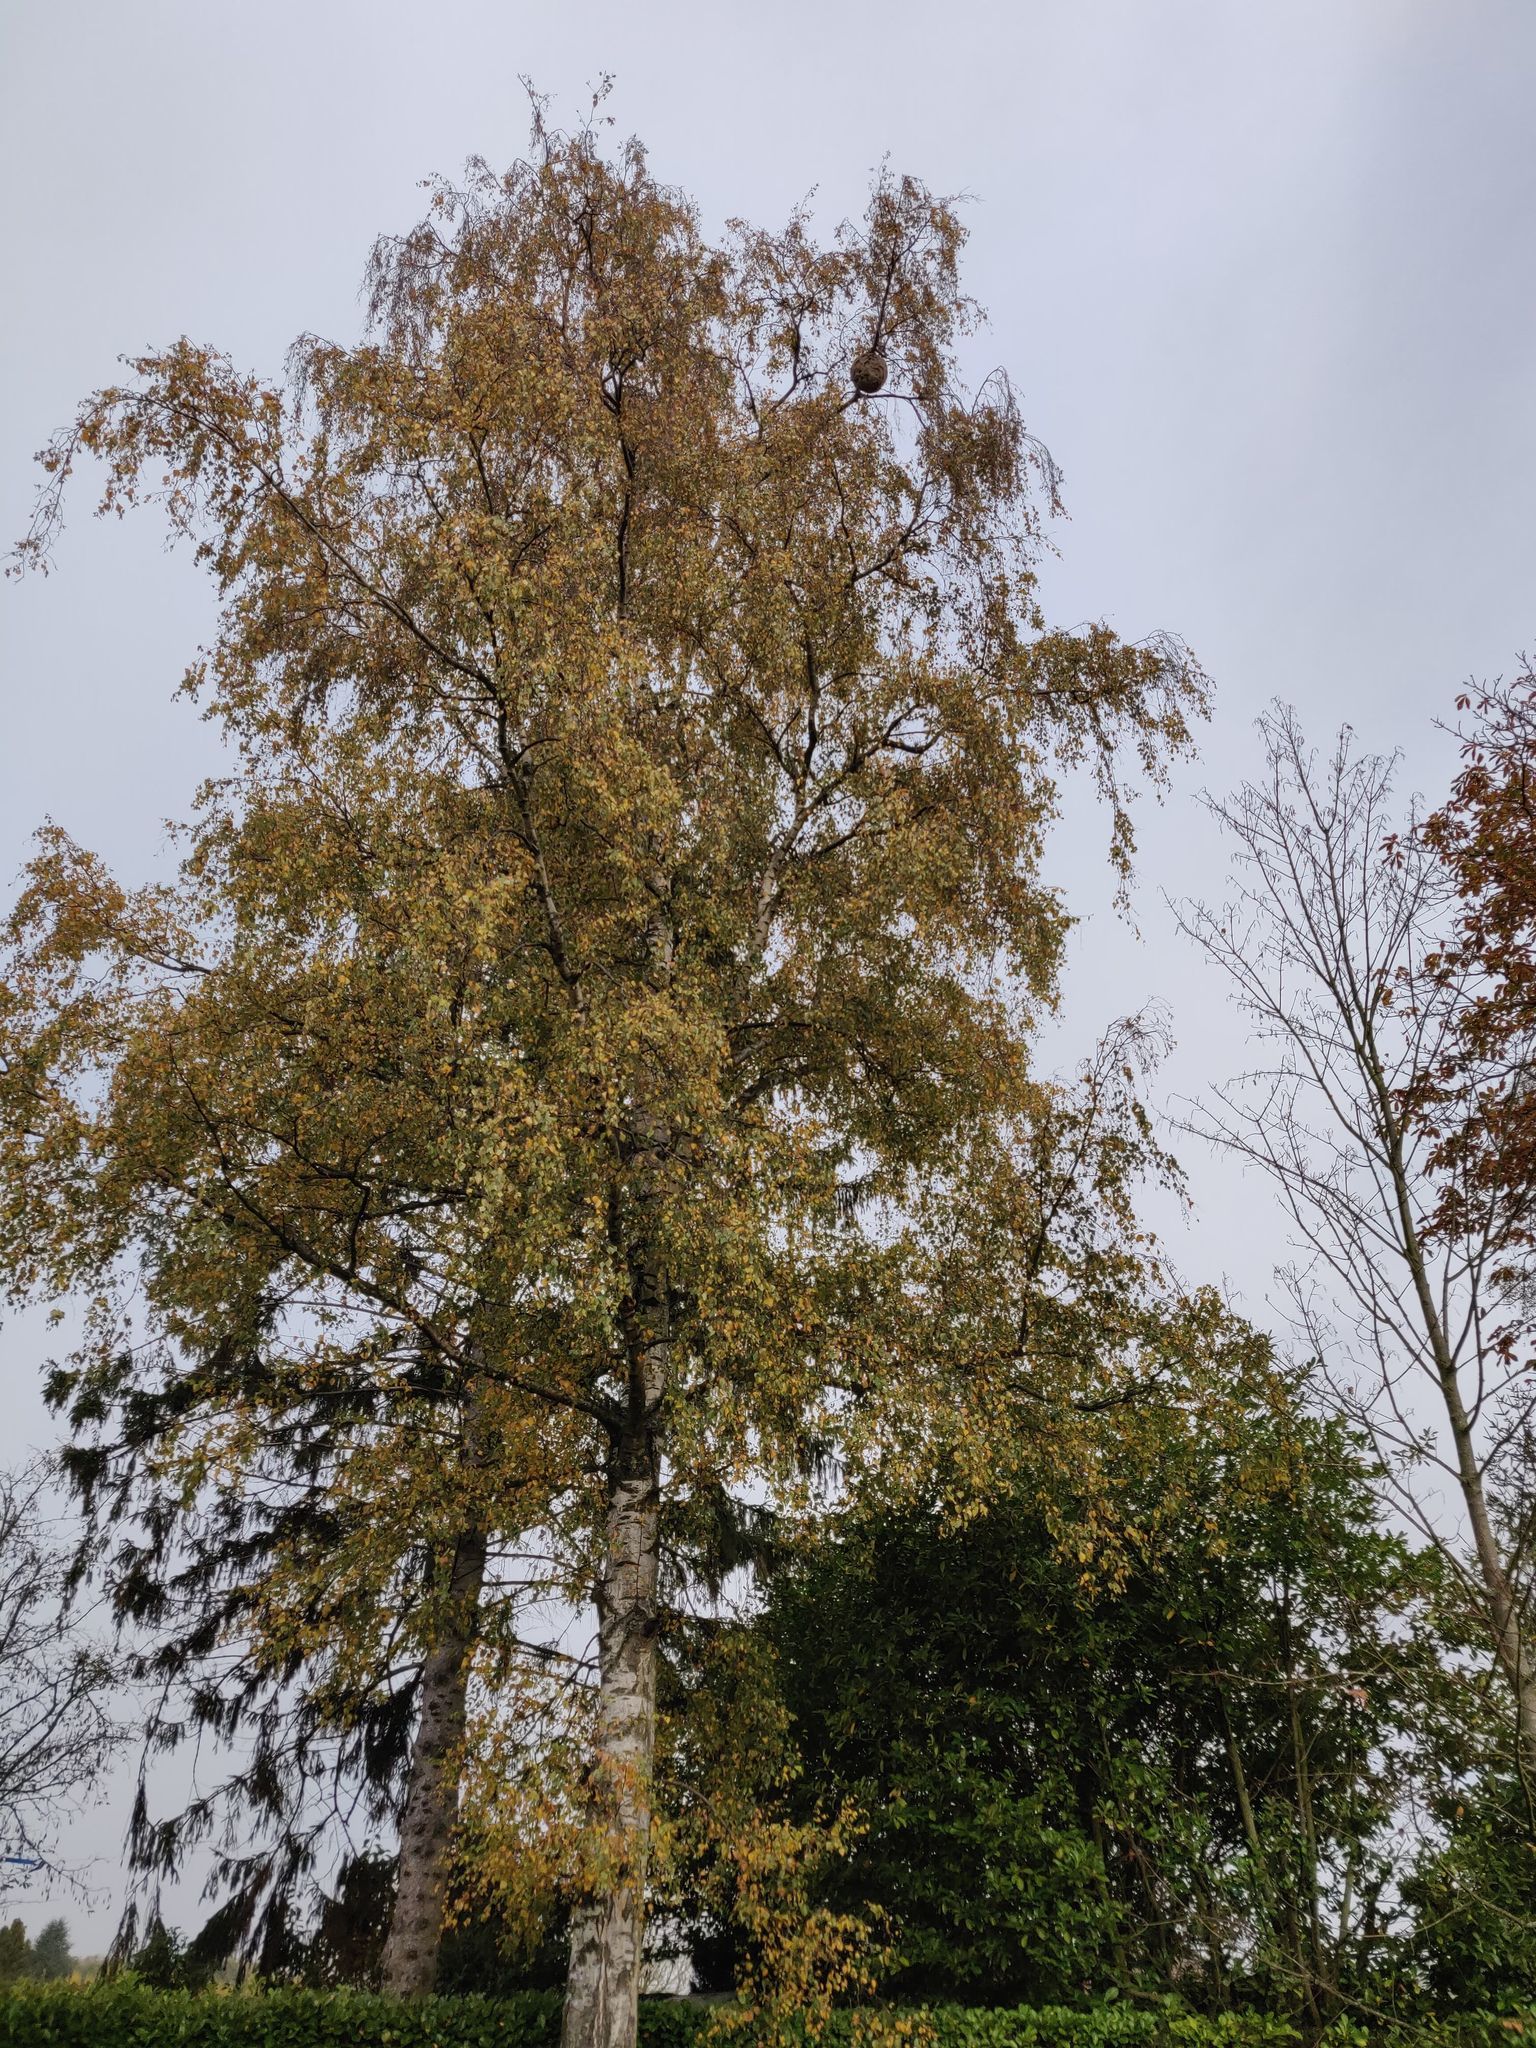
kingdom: Animalia
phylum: Arthropoda
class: Insecta
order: Hymenoptera
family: Vespidae
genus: Vespa
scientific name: Vespa velutina
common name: Asian hornet
